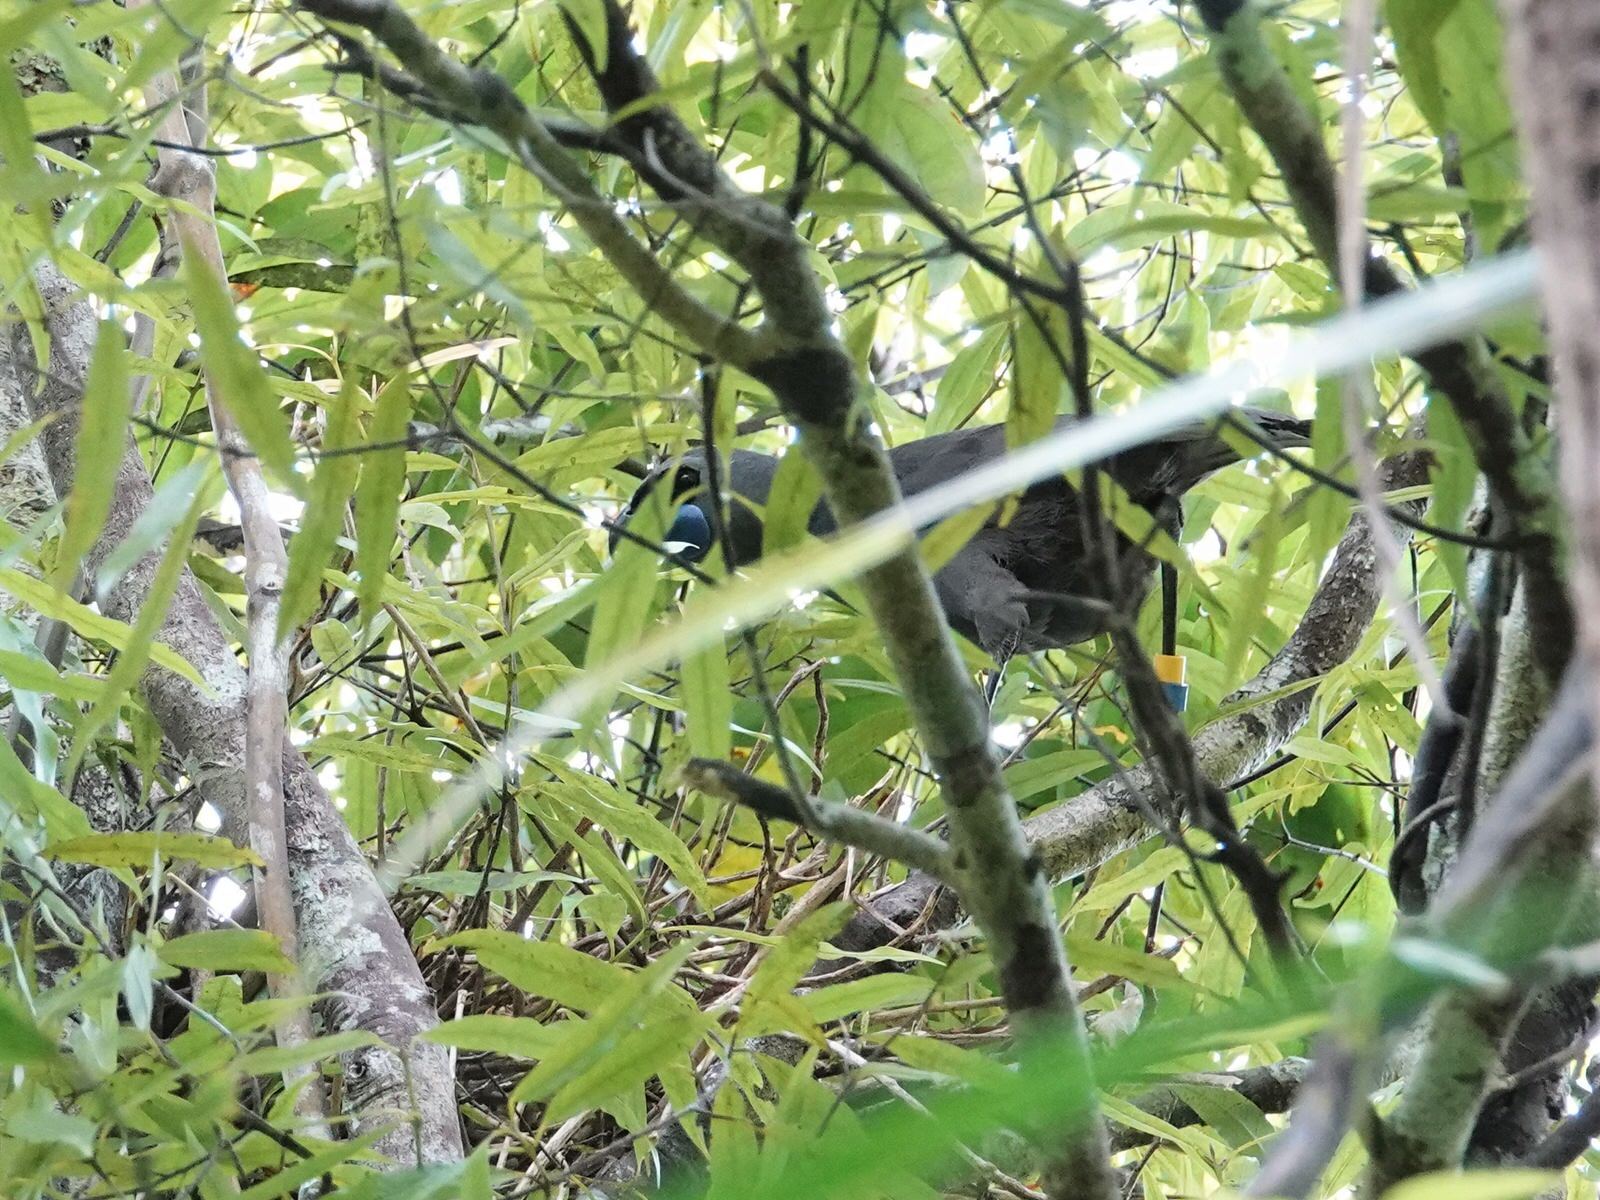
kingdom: Animalia
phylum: Chordata
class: Aves
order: Passeriformes
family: Callaeatidae
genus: Callaeas
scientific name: Callaeas cinereus
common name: South island kokako
